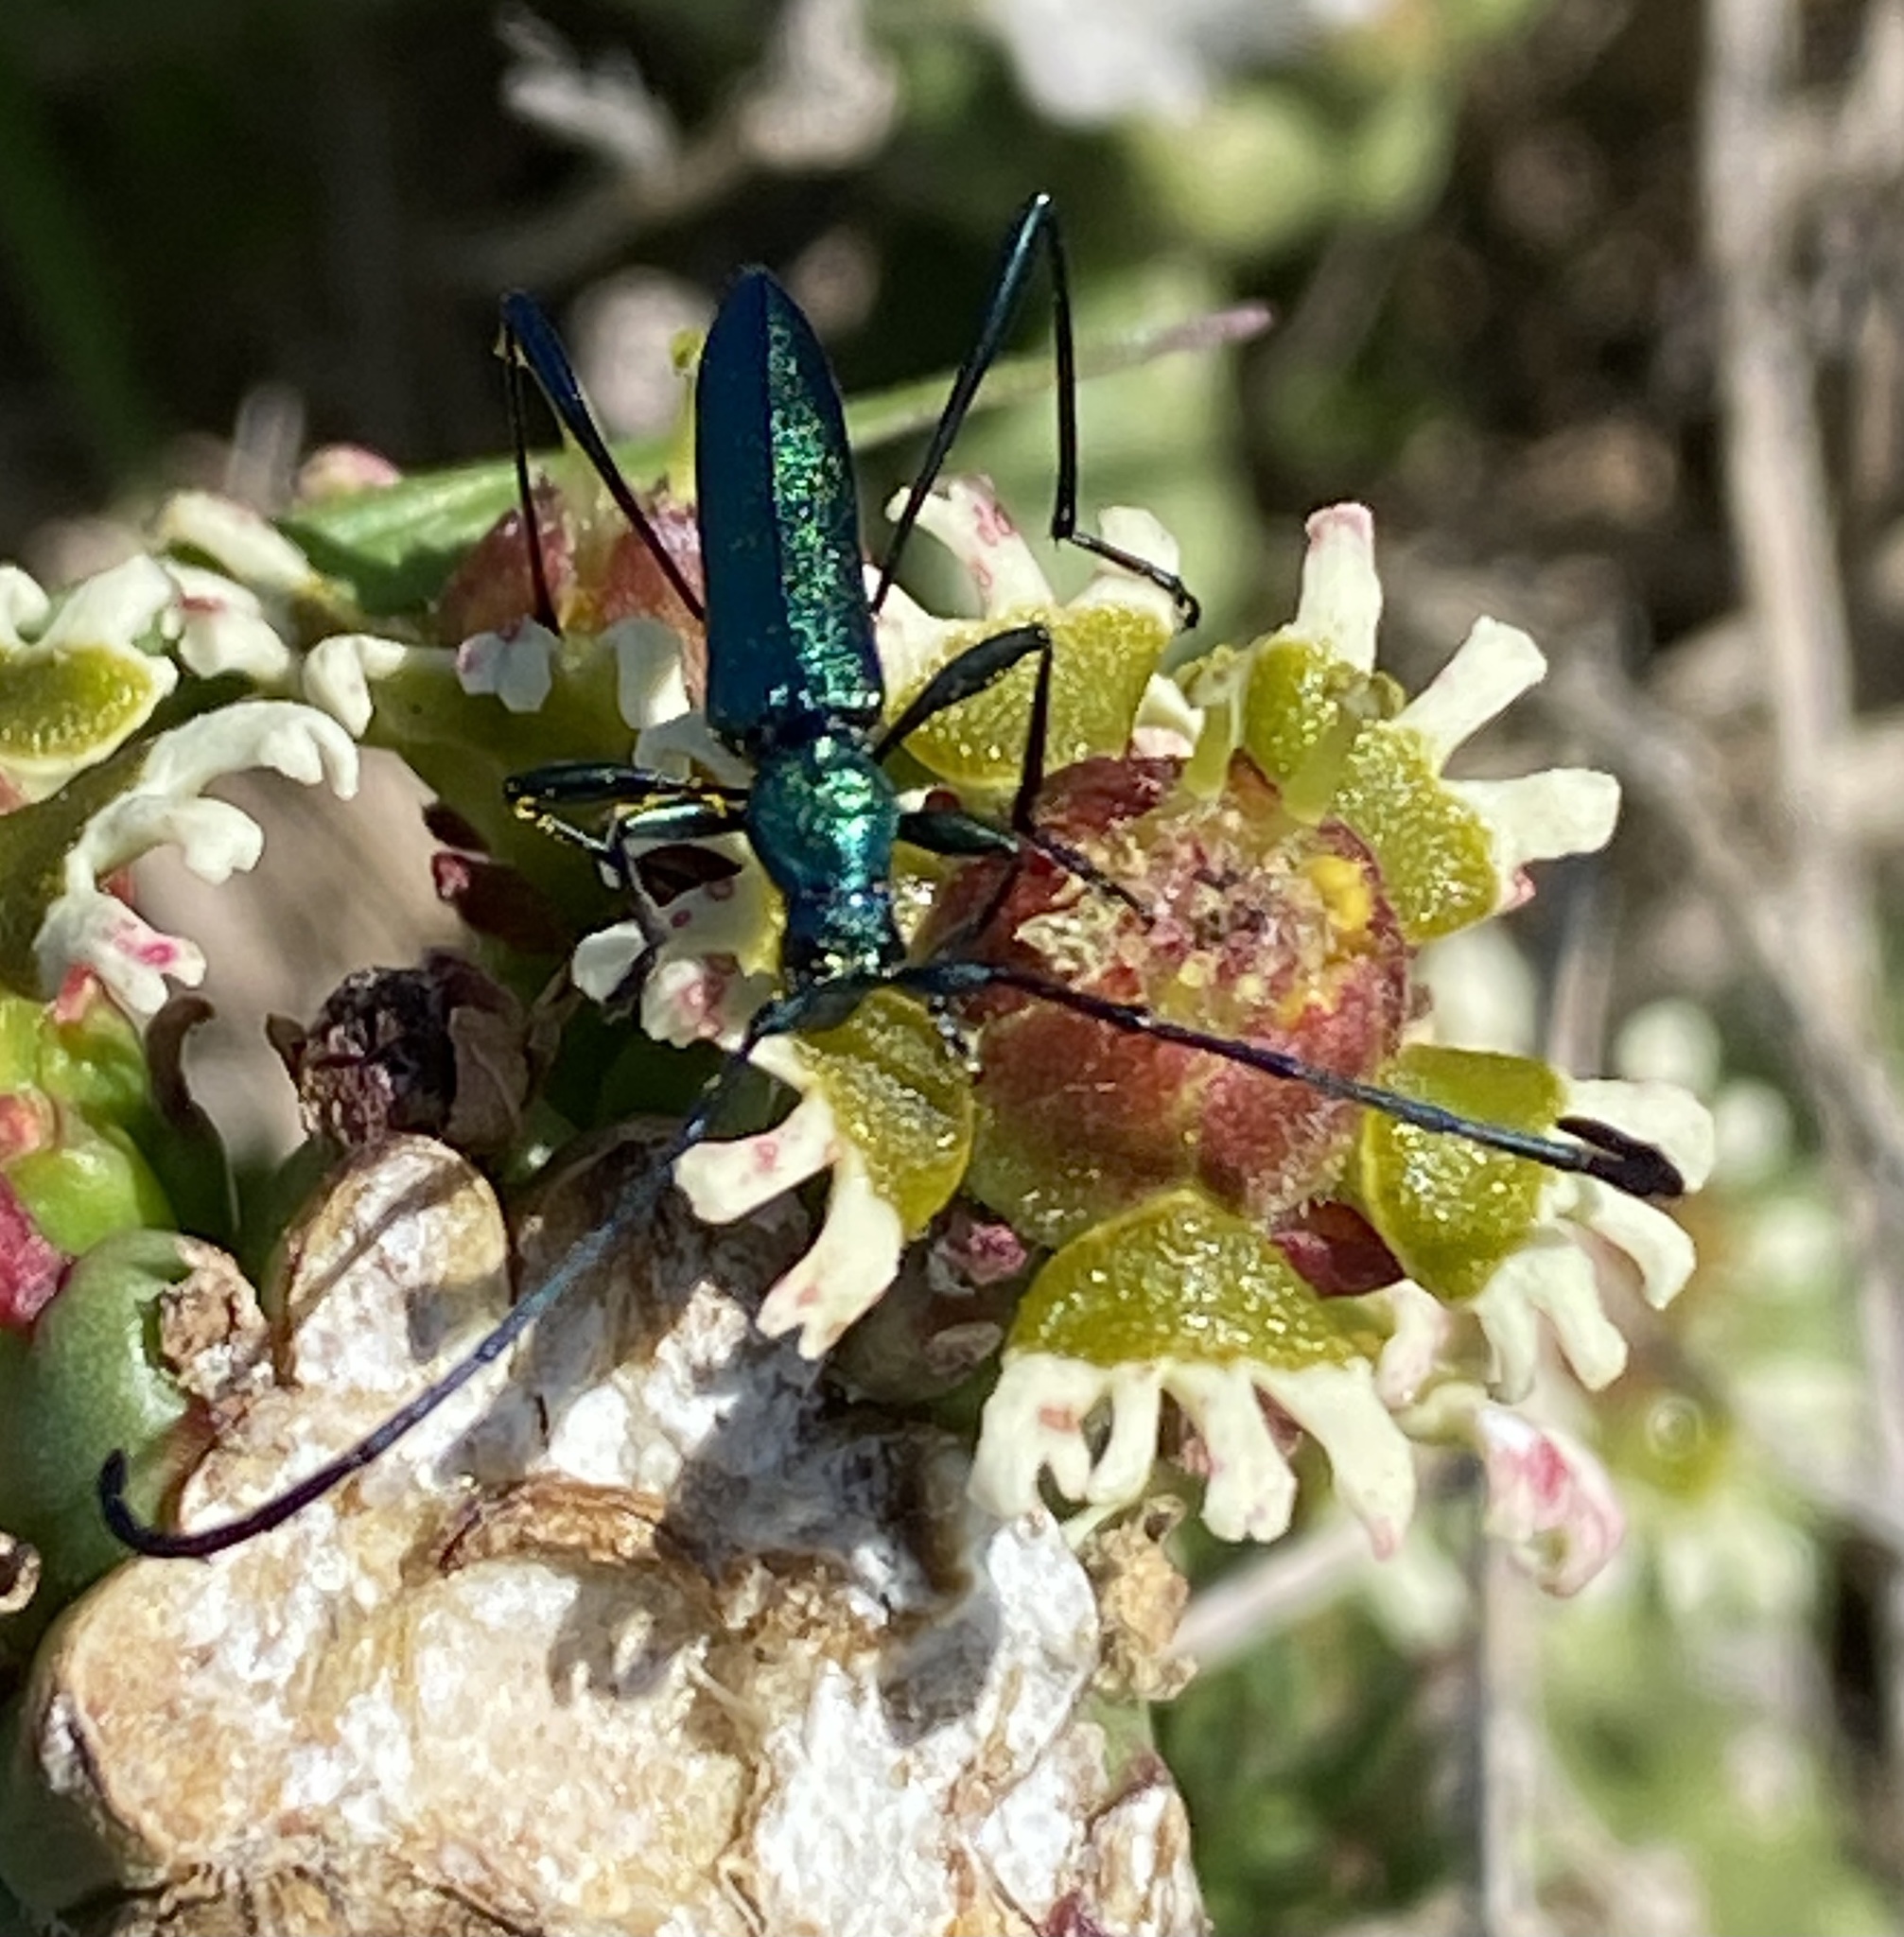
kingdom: Animalia
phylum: Arthropoda
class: Insecta
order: Coleoptera
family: Cerambycidae
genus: Promeces
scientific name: Promeces longipes
